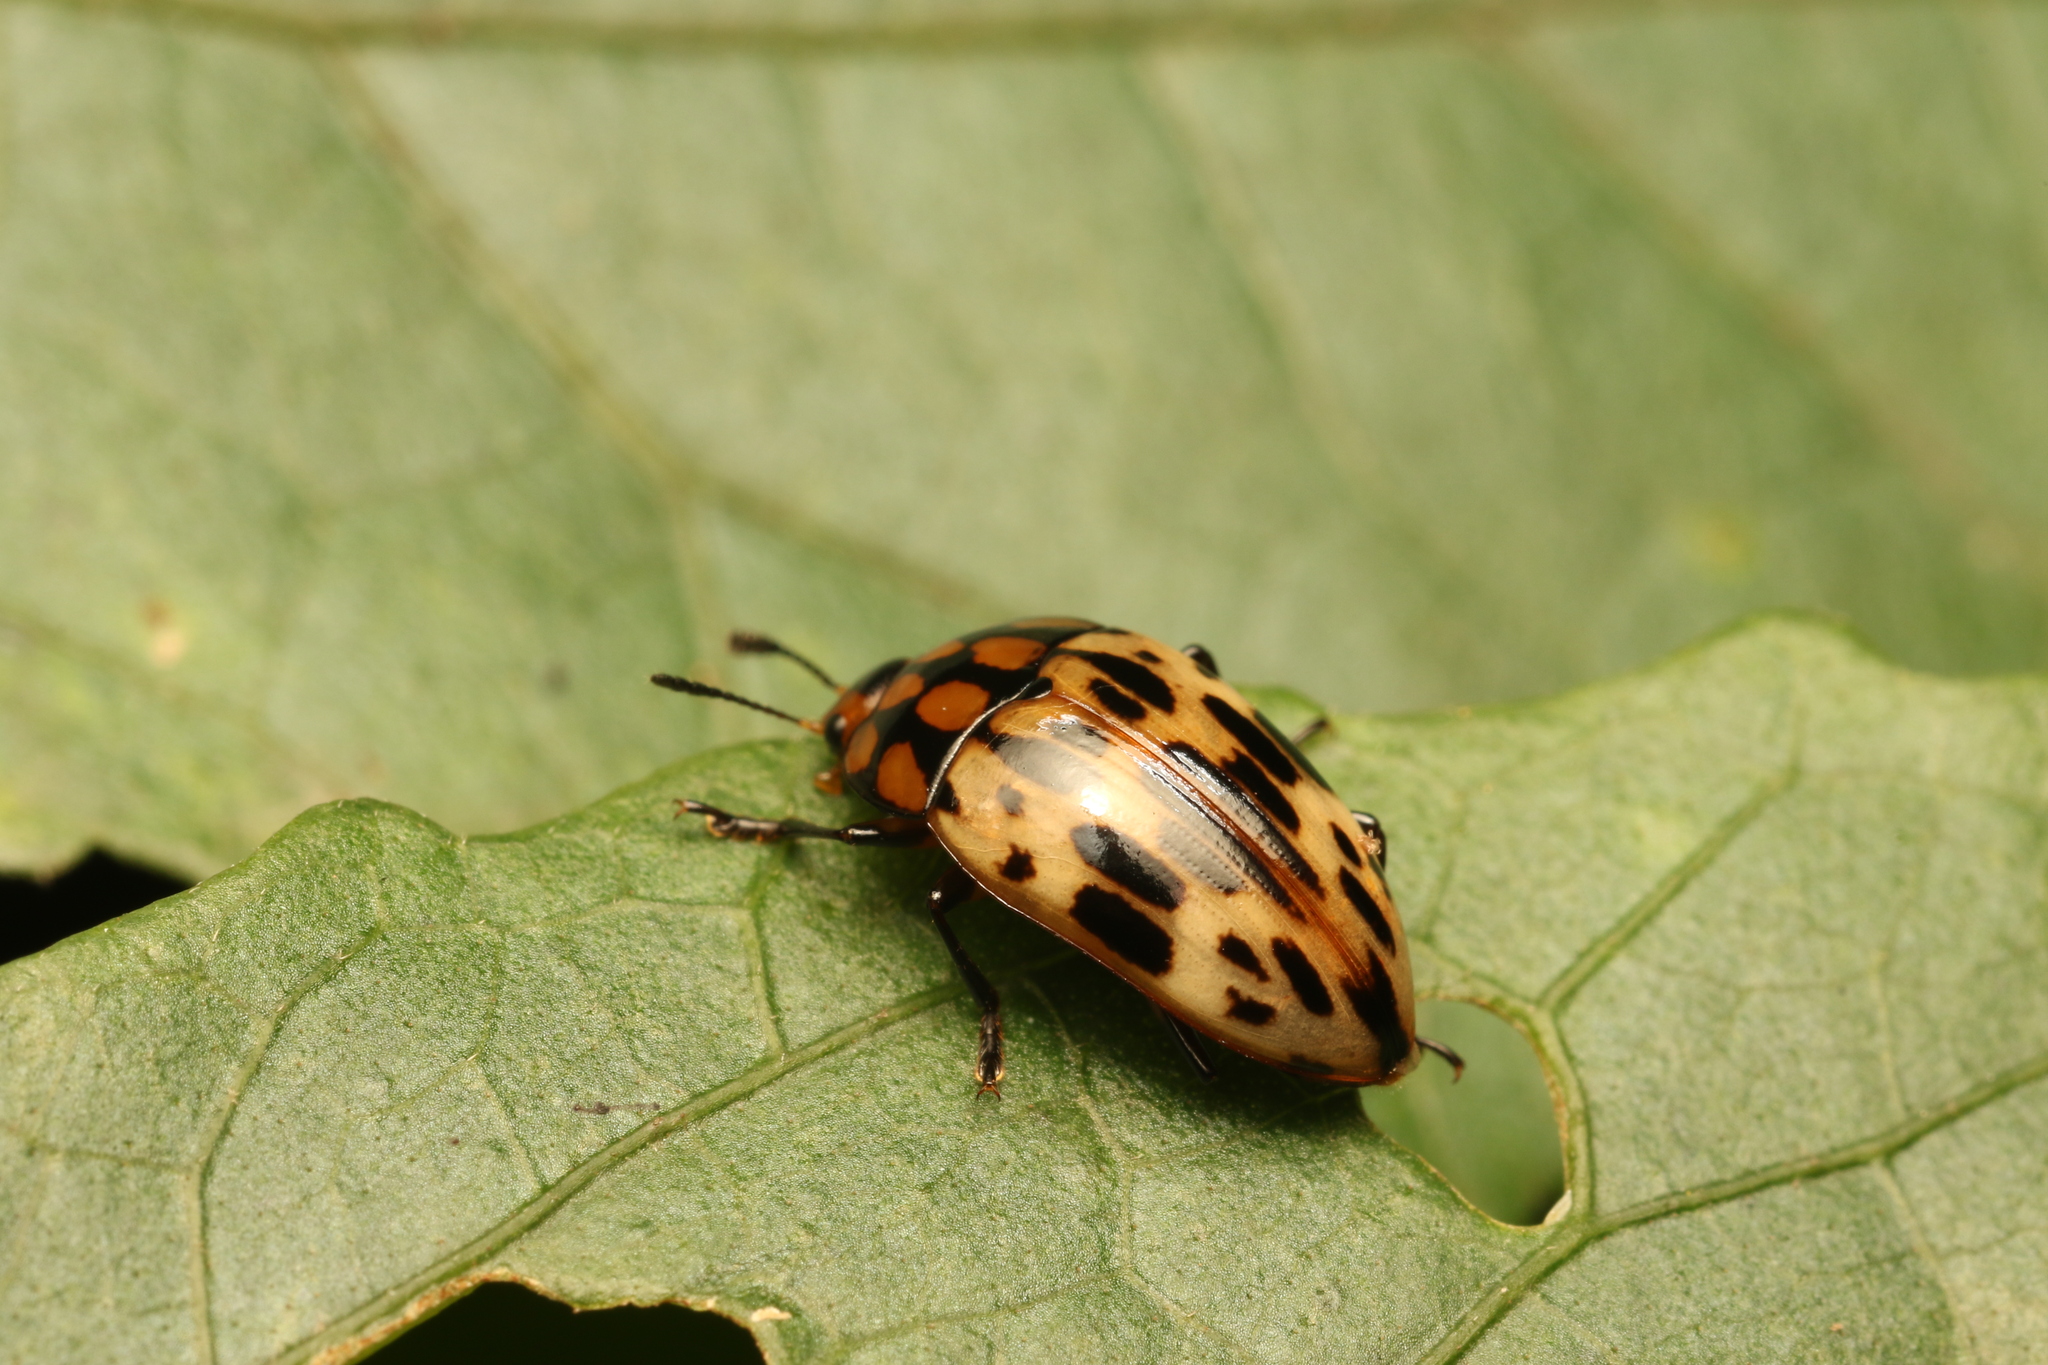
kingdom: Animalia
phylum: Arthropoda
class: Insecta
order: Coleoptera
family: Erotylidae
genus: Iphiclus
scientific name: Iphiclus
